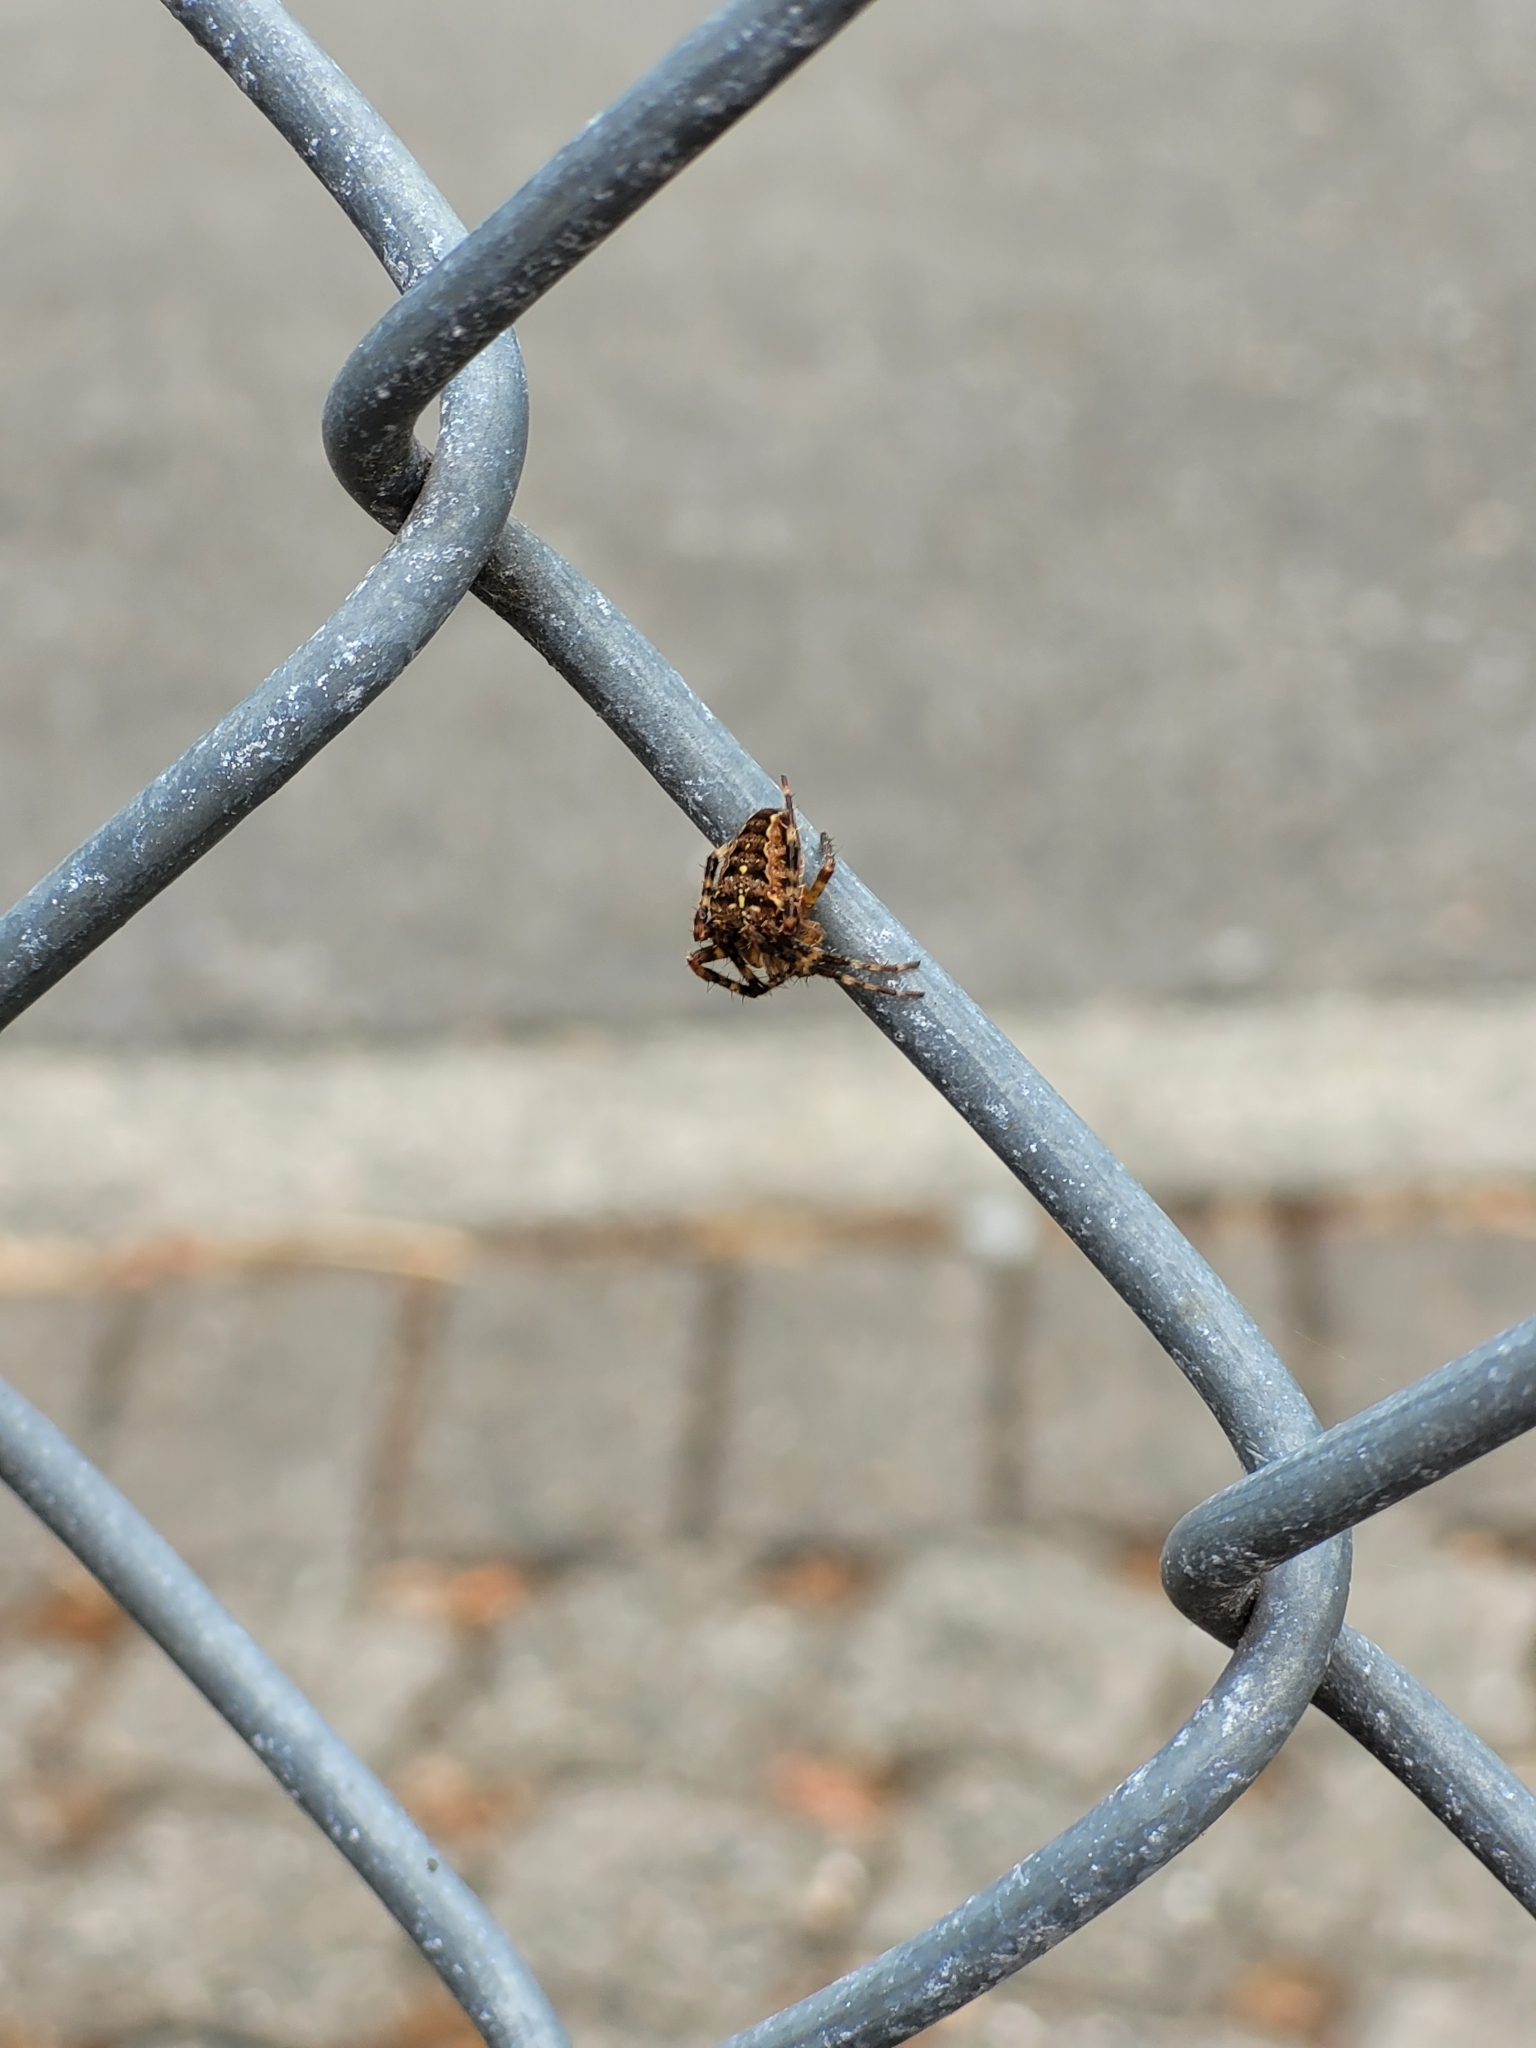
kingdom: Animalia
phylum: Arthropoda
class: Arachnida
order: Araneae
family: Araneidae
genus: Araneus
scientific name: Araneus diadematus
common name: Cross orbweaver
